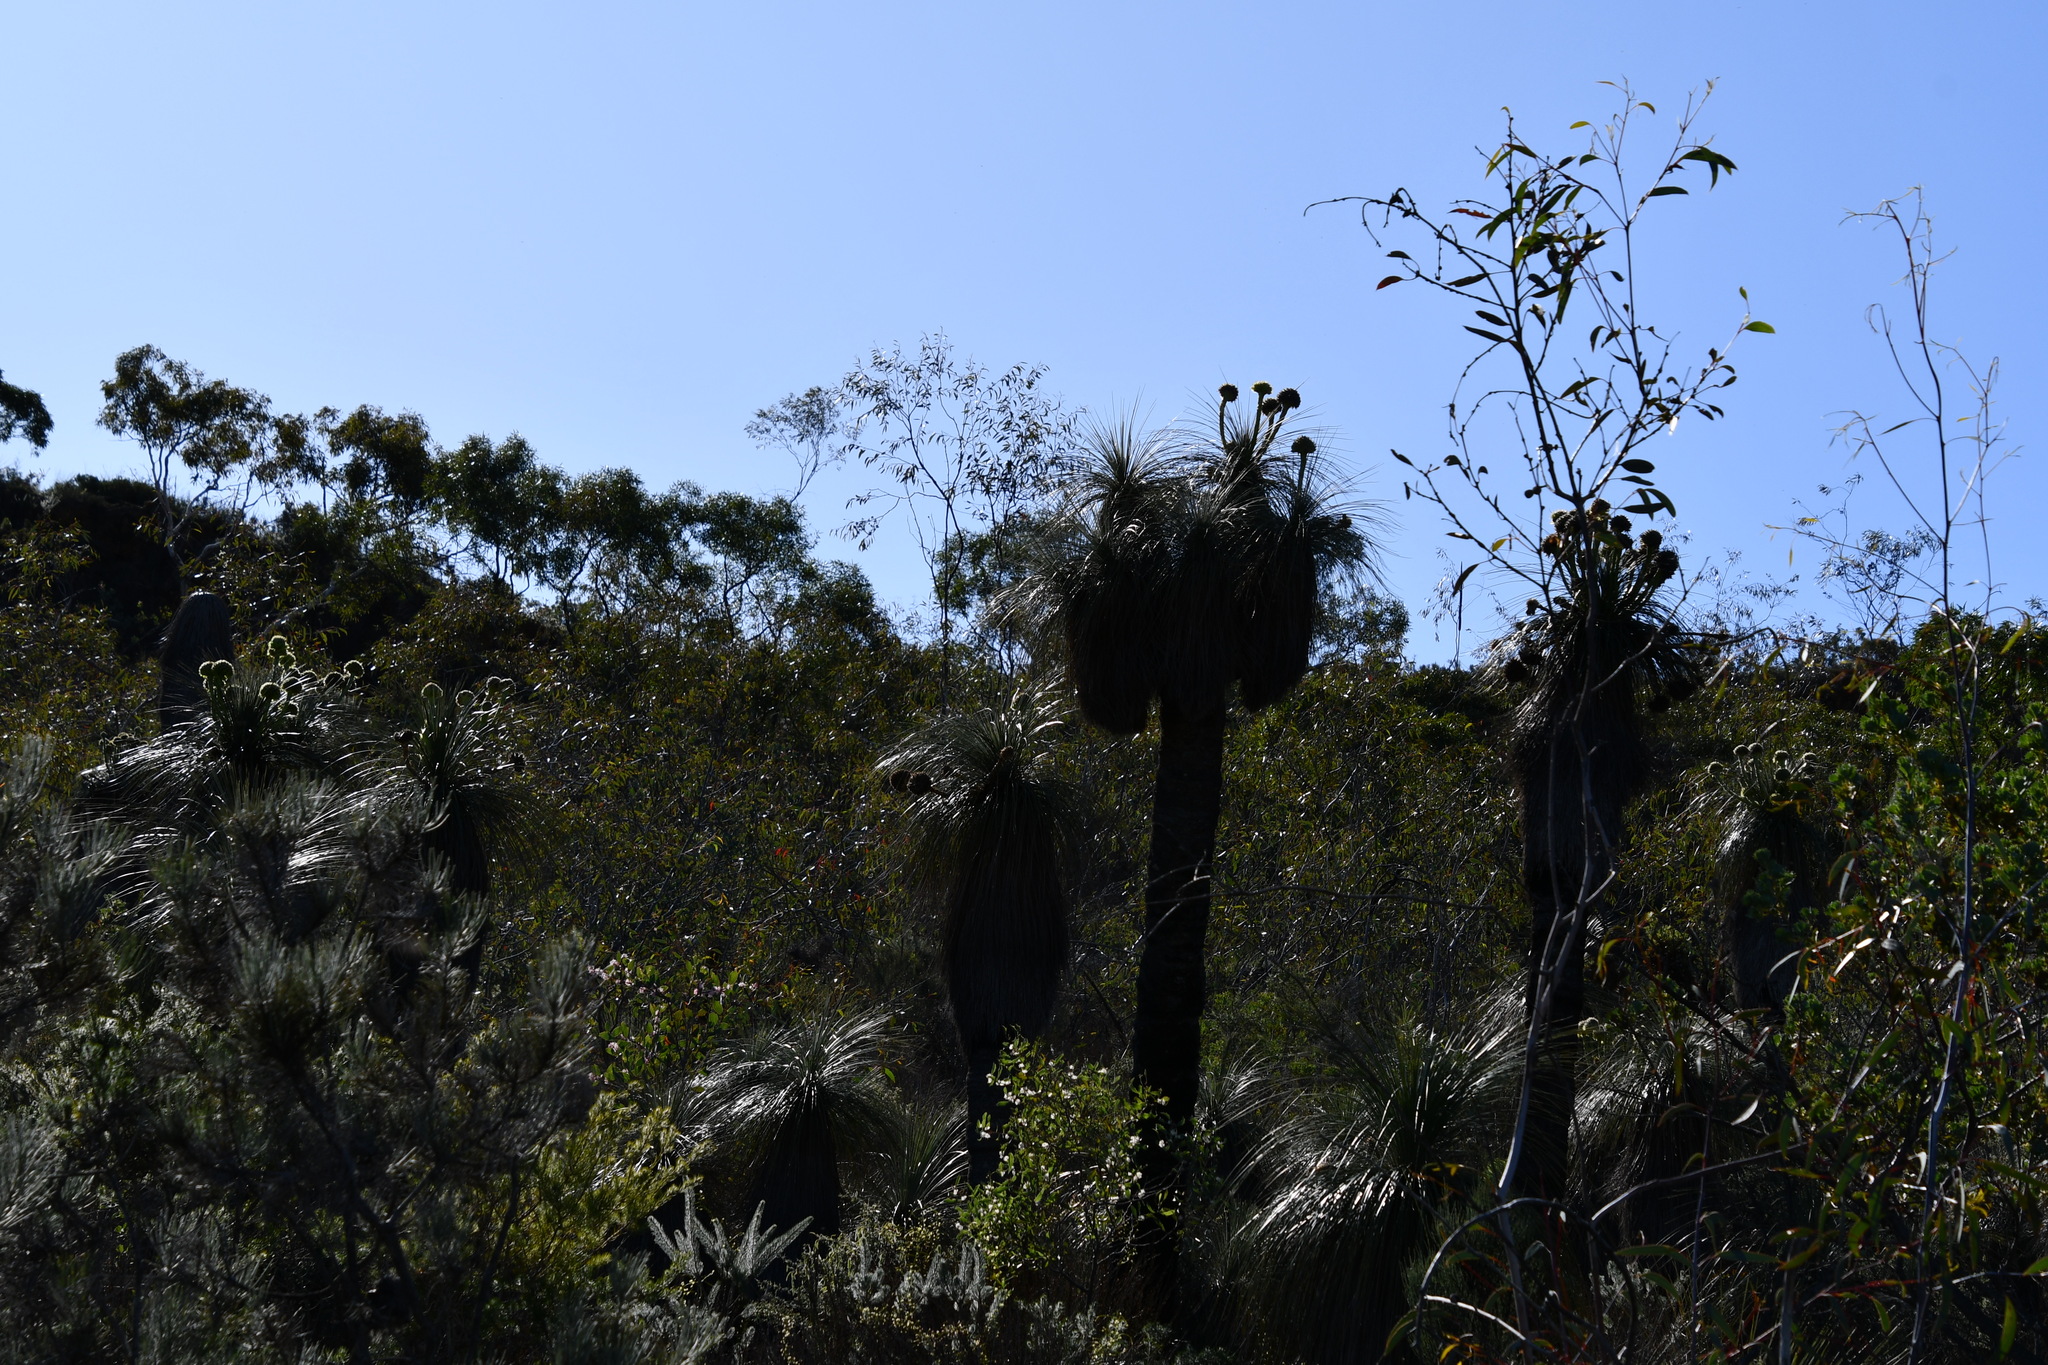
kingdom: Plantae
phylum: Tracheophyta
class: Liliopsida
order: Arecales
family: Dasypogonaceae
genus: Kingia
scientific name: Kingia australis
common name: Black gin
